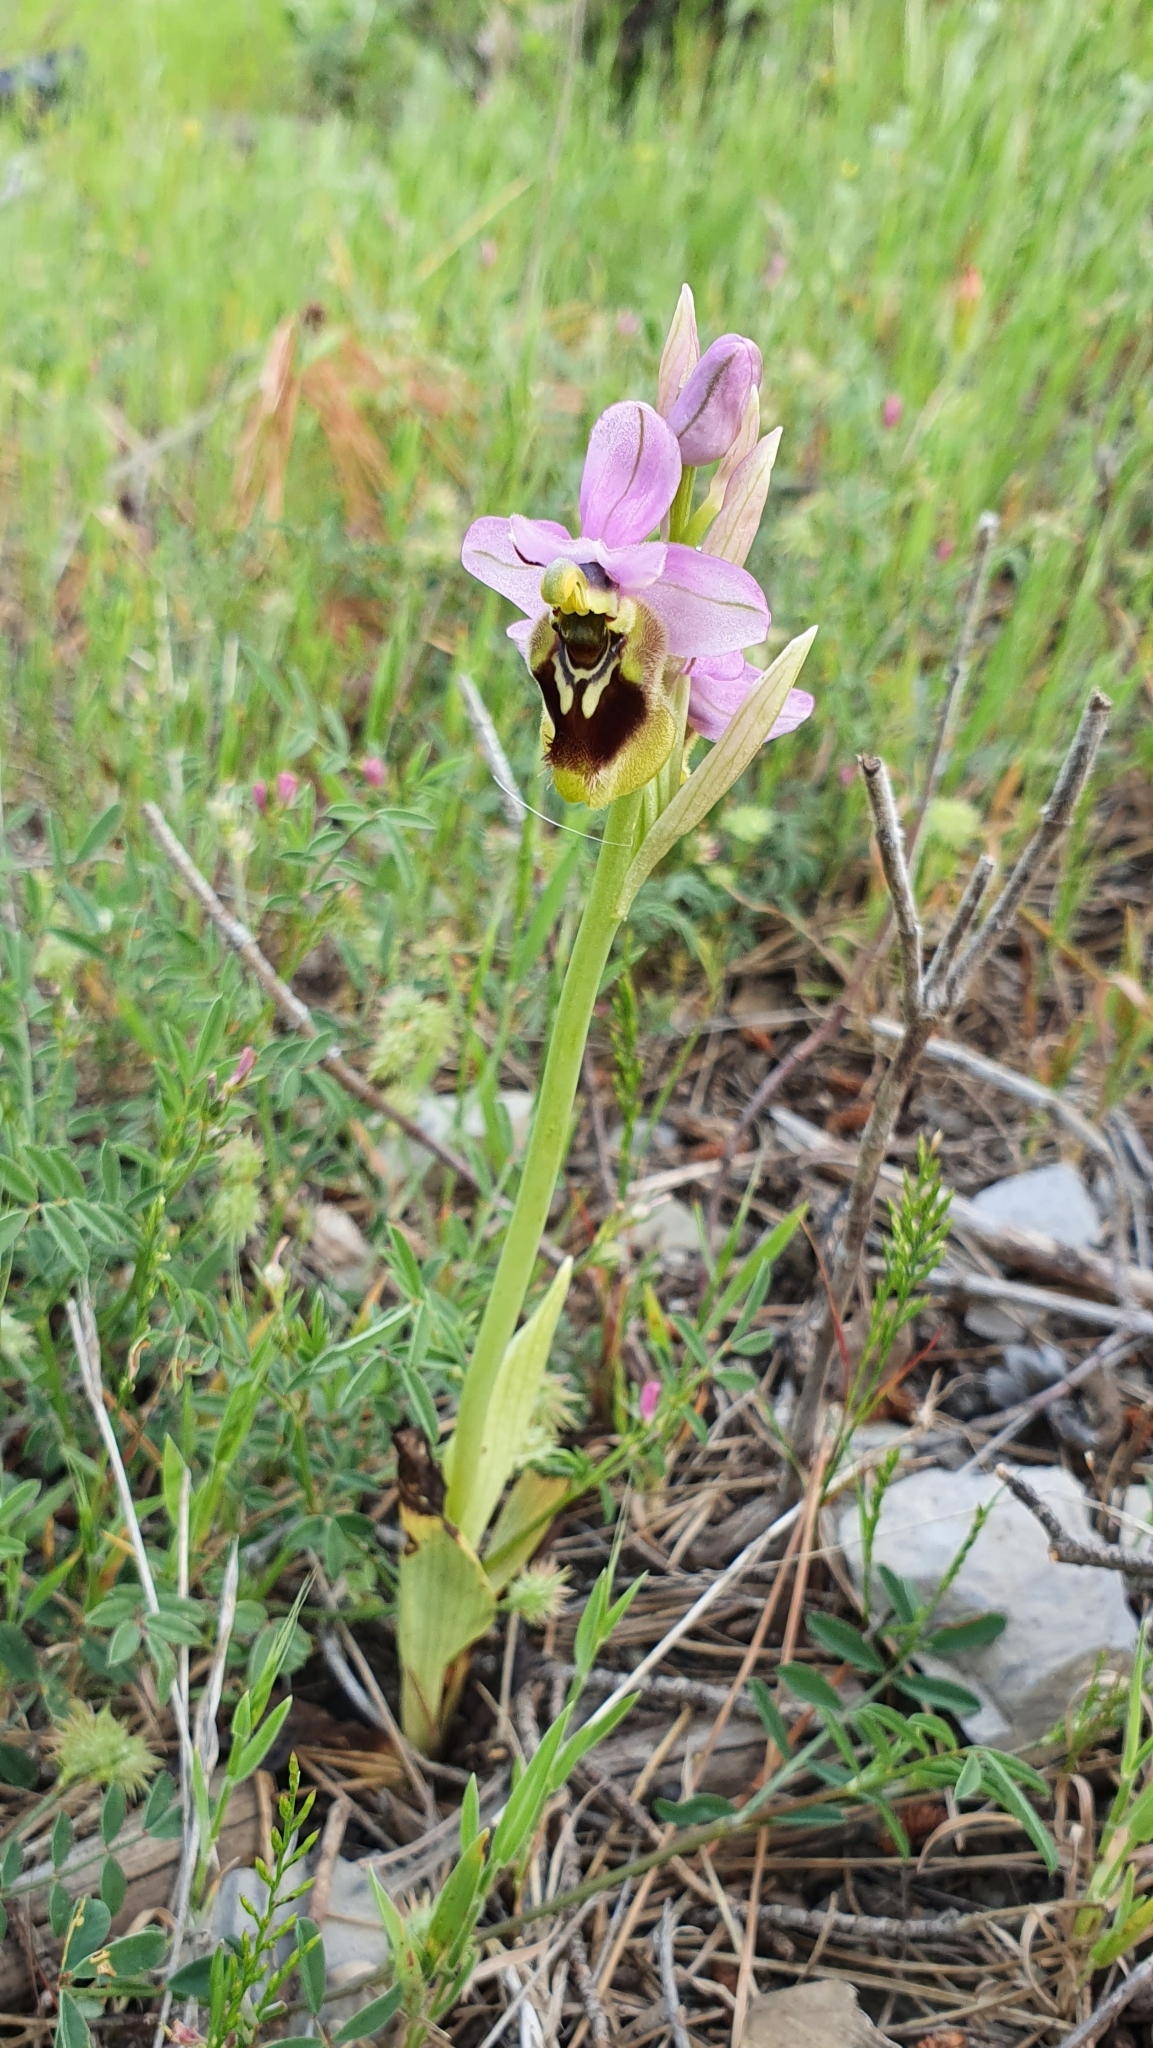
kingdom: Plantae
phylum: Tracheophyta
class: Liliopsida
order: Asparagales
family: Orchidaceae
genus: Ophrys
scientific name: Ophrys tenthredinifera
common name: Sawfly orchid
